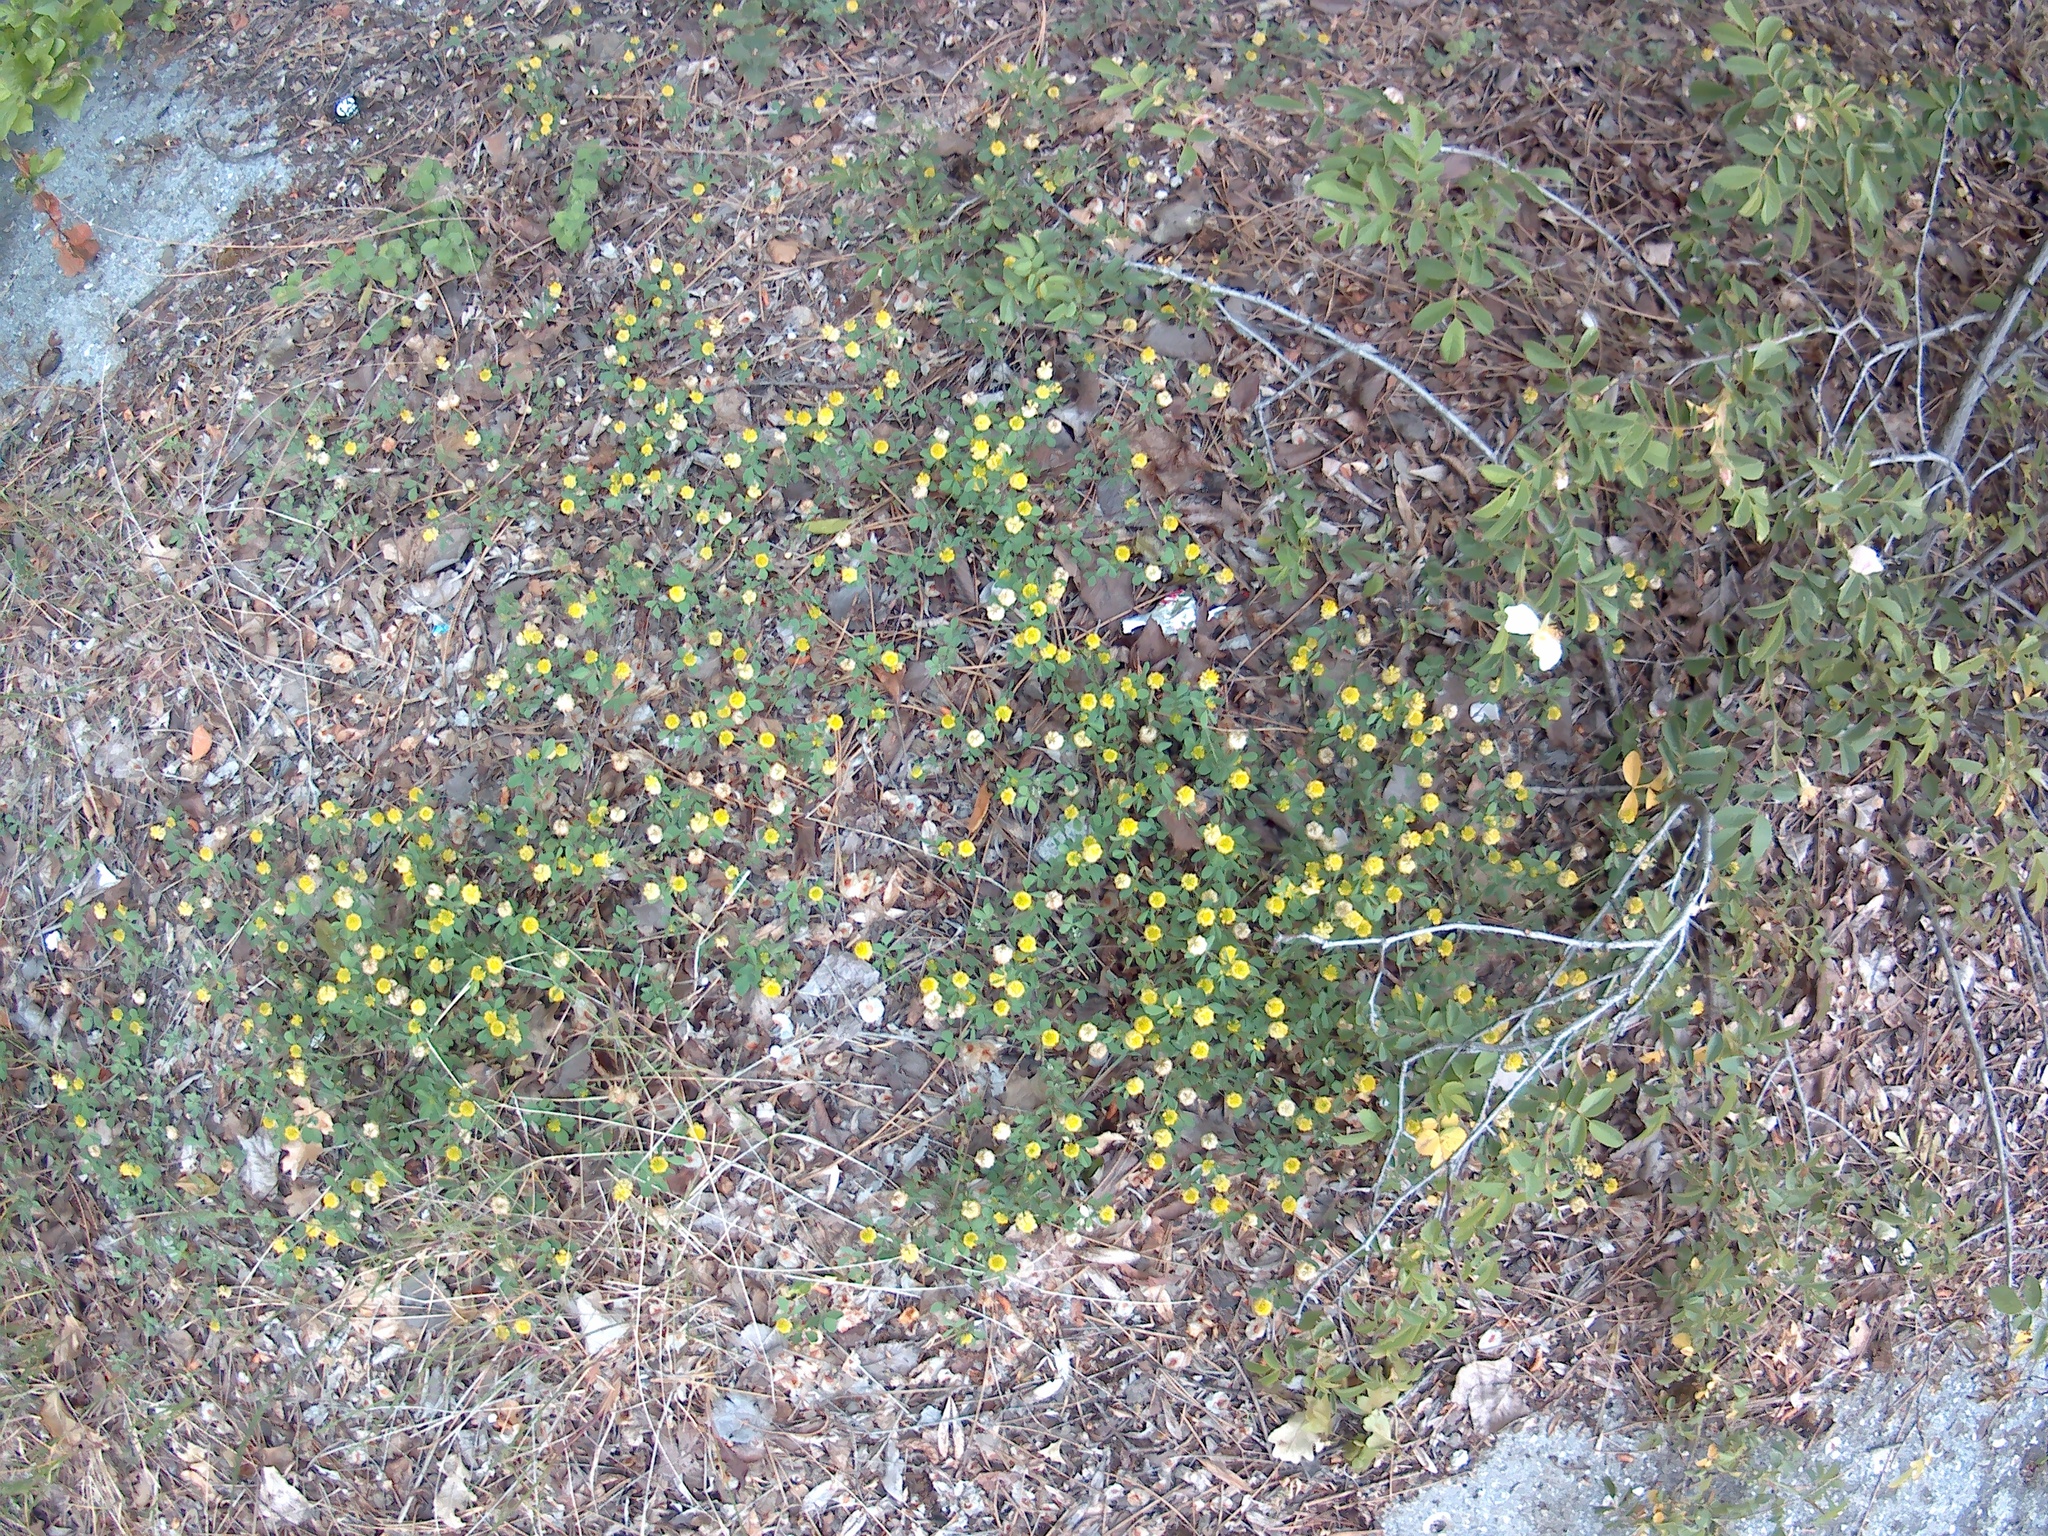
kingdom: Plantae
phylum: Tracheophyta
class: Magnoliopsida
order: Fabales
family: Fabaceae
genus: Trifolium
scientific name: Trifolium campestre
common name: Field clover
